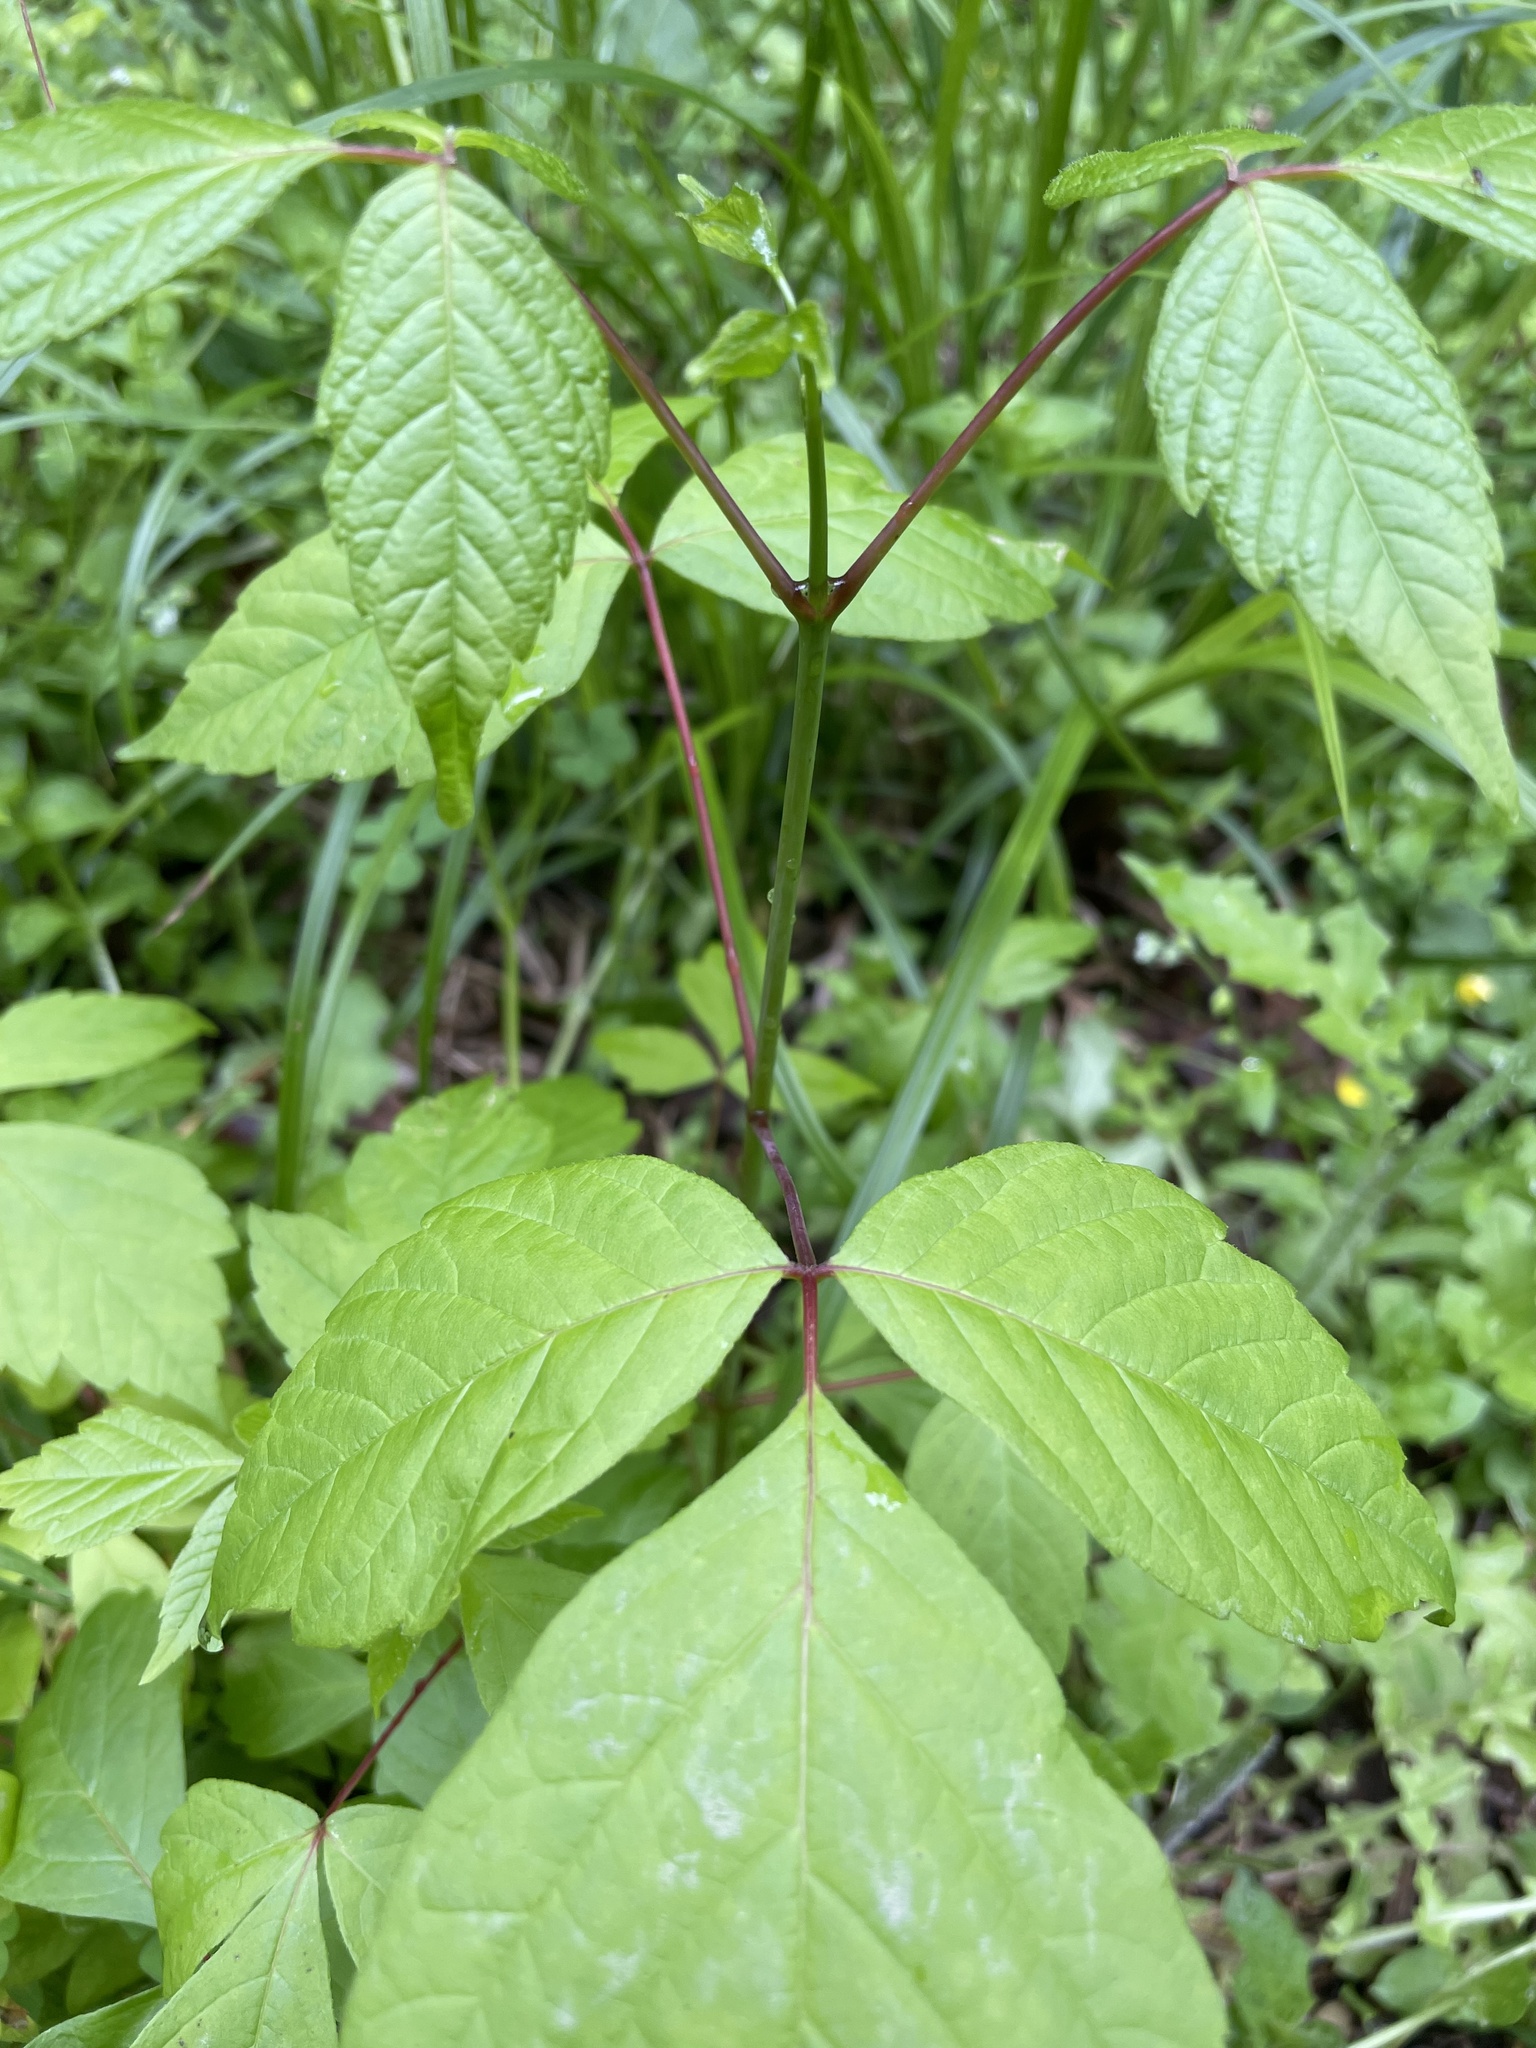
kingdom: Plantae
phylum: Tracheophyta
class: Magnoliopsida
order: Sapindales
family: Sapindaceae
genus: Acer
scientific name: Acer negundo
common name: Ashleaf maple
